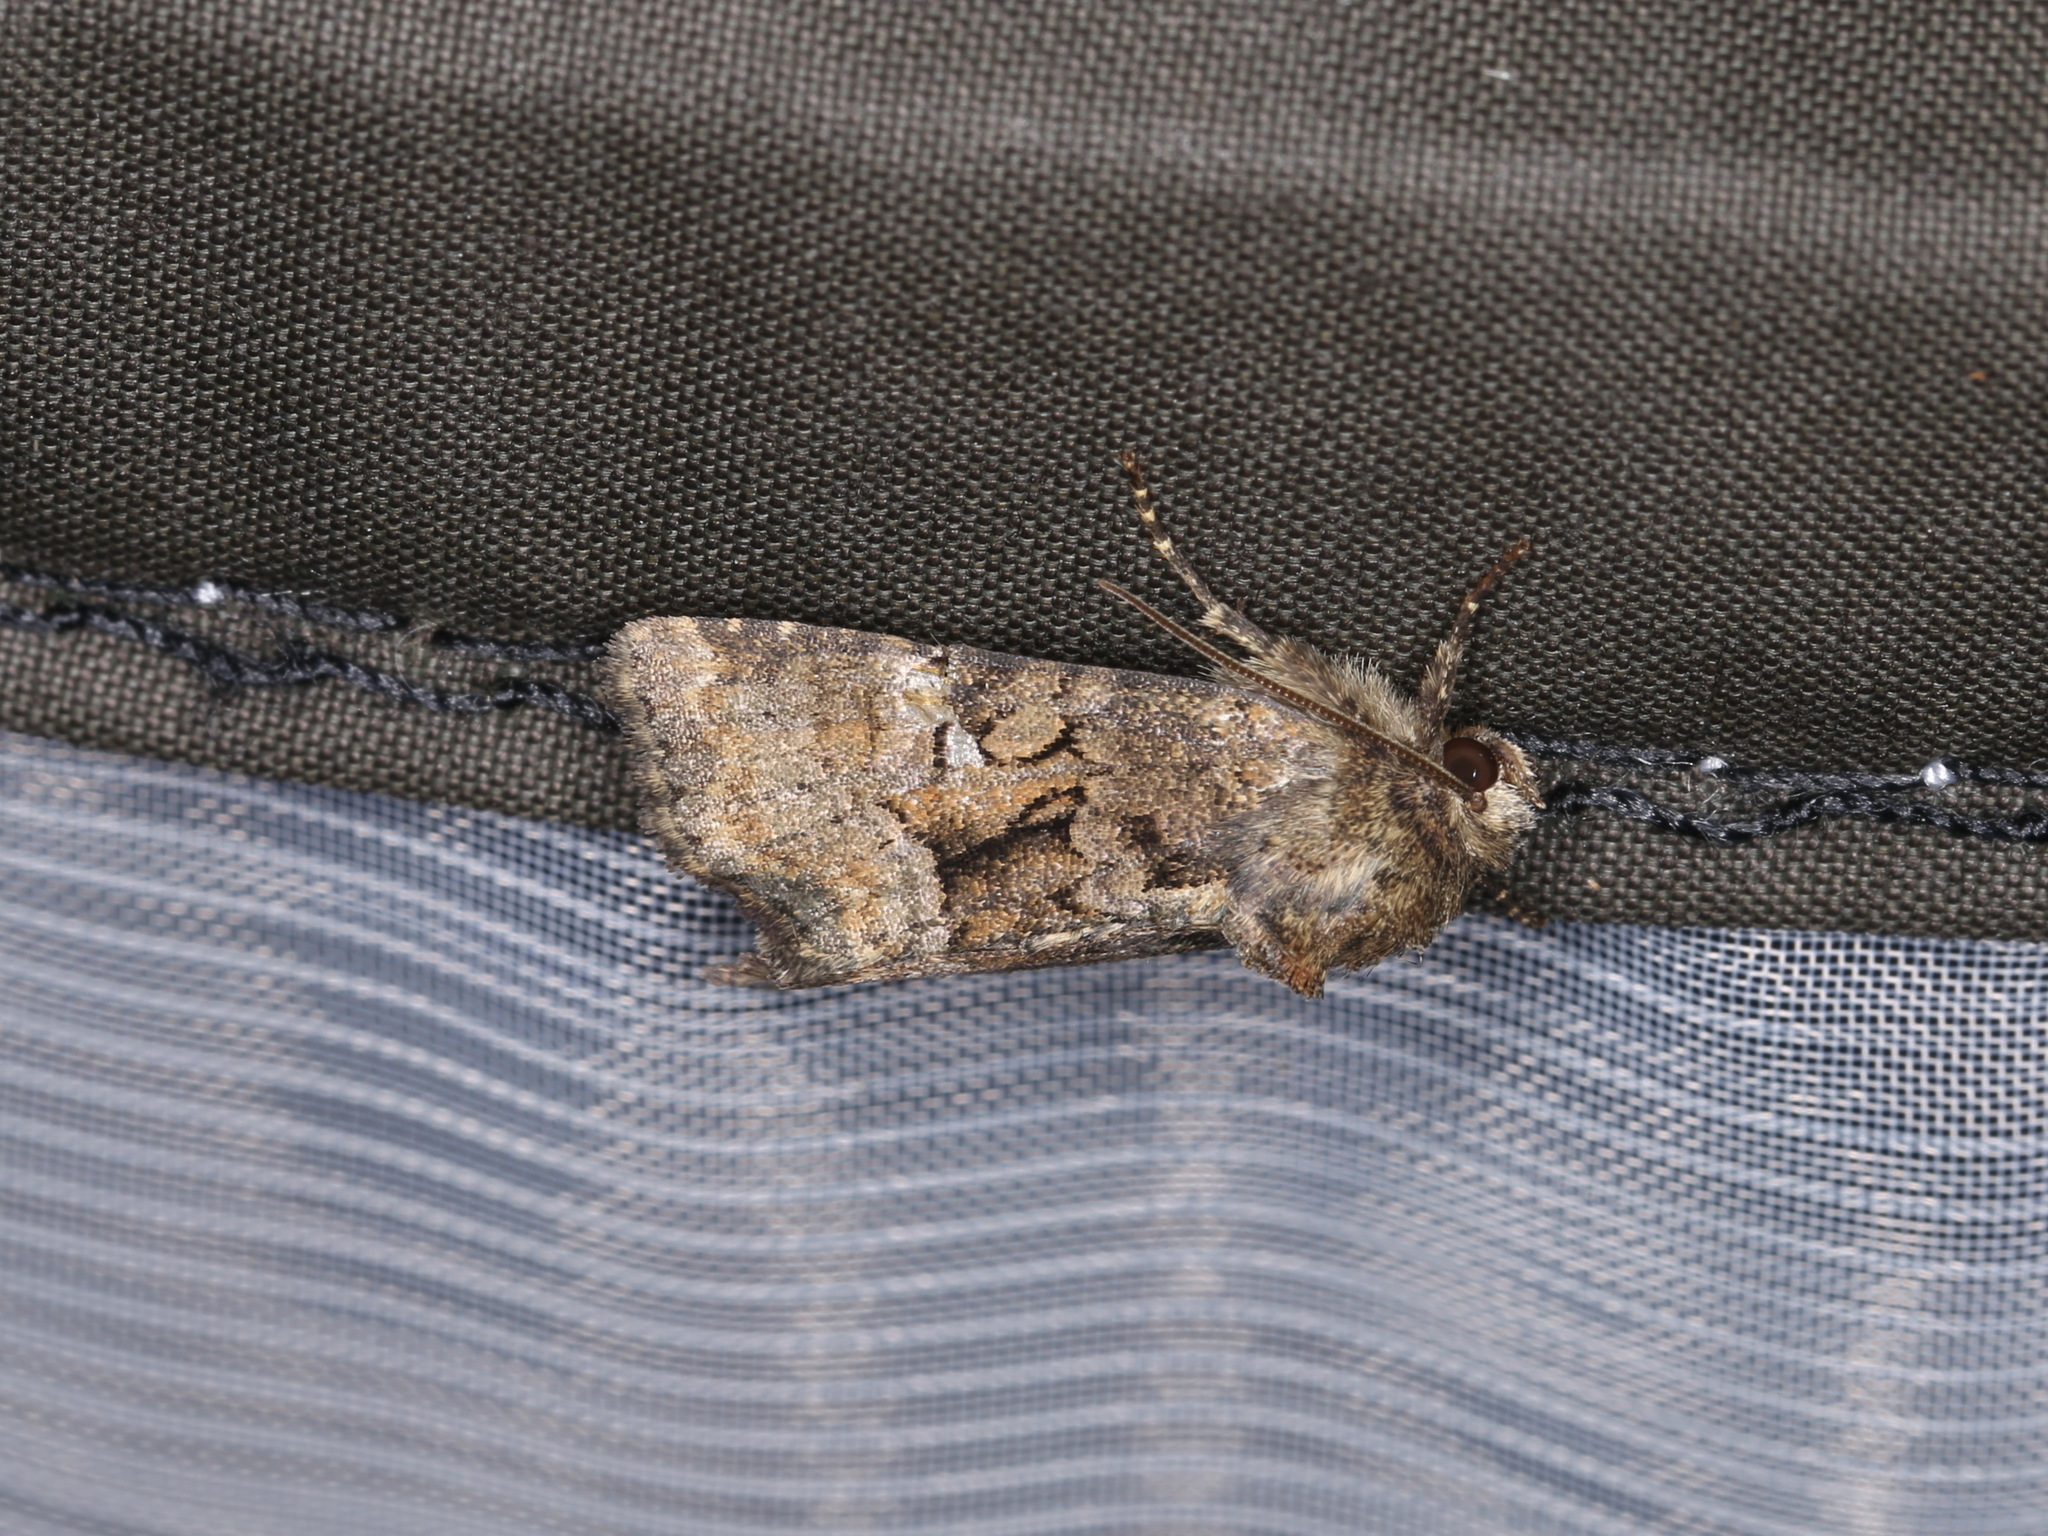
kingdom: Animalia
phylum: Arthropoda
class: Insecta
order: Lepidoptera
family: Noctuidae
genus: Oligia
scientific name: Oligia versicolor
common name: Rufous minor
